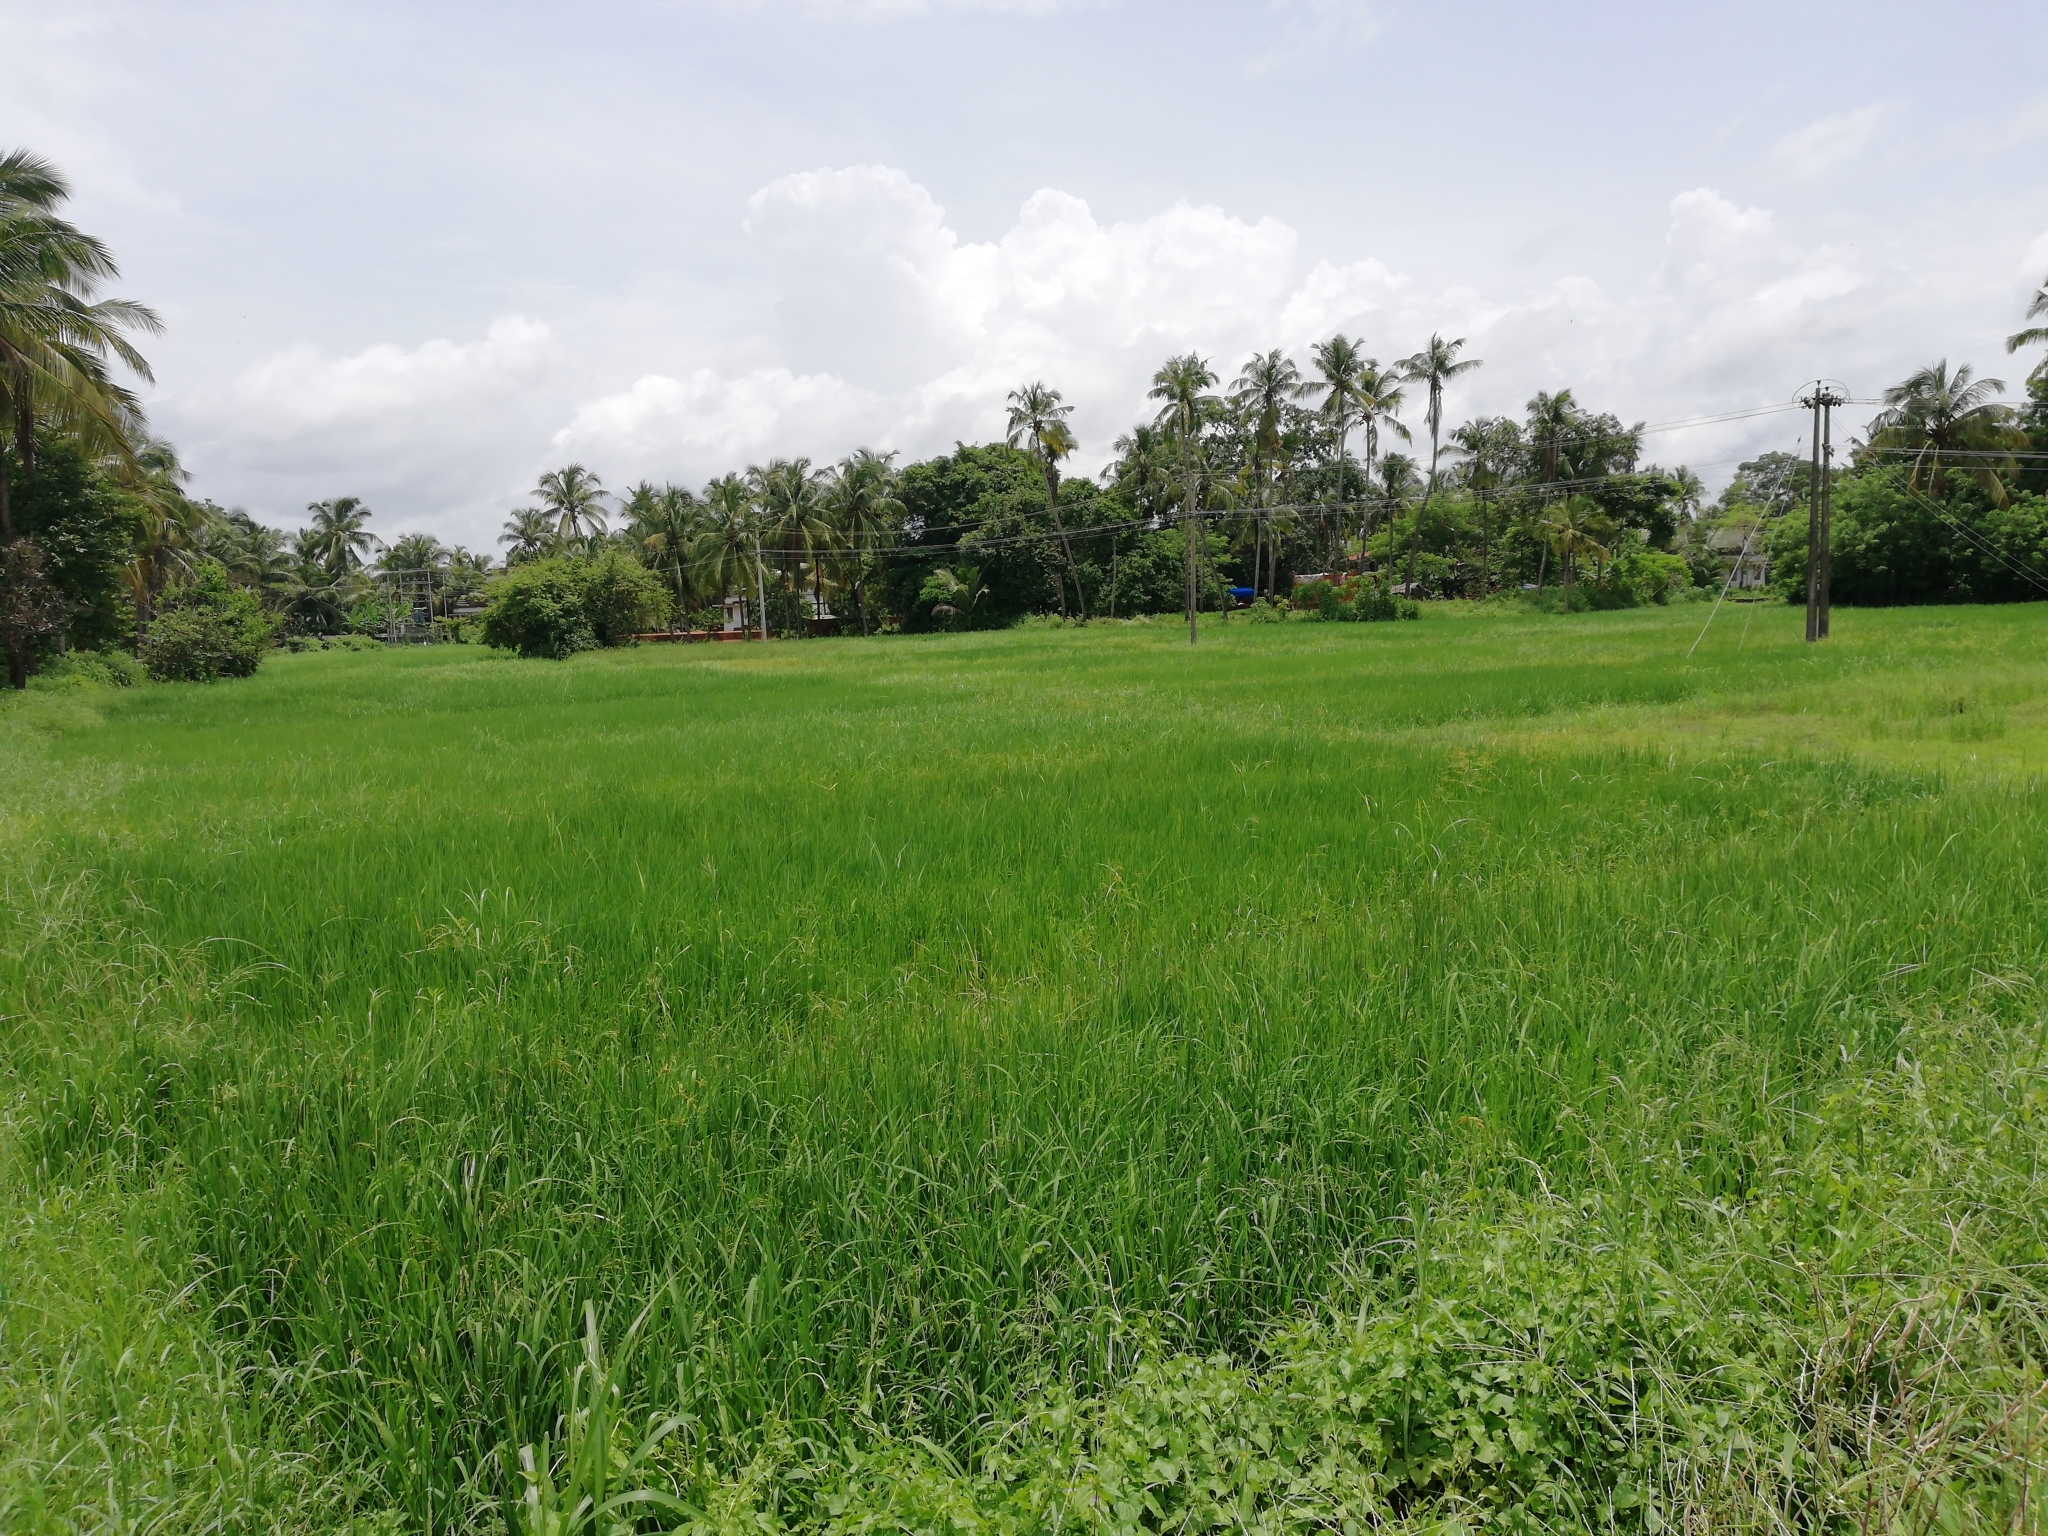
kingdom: Plantae
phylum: Tracheophyta
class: Liliopsida
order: Poales
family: Poaceae
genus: Oryza
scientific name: Oryza sativa
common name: Rice
